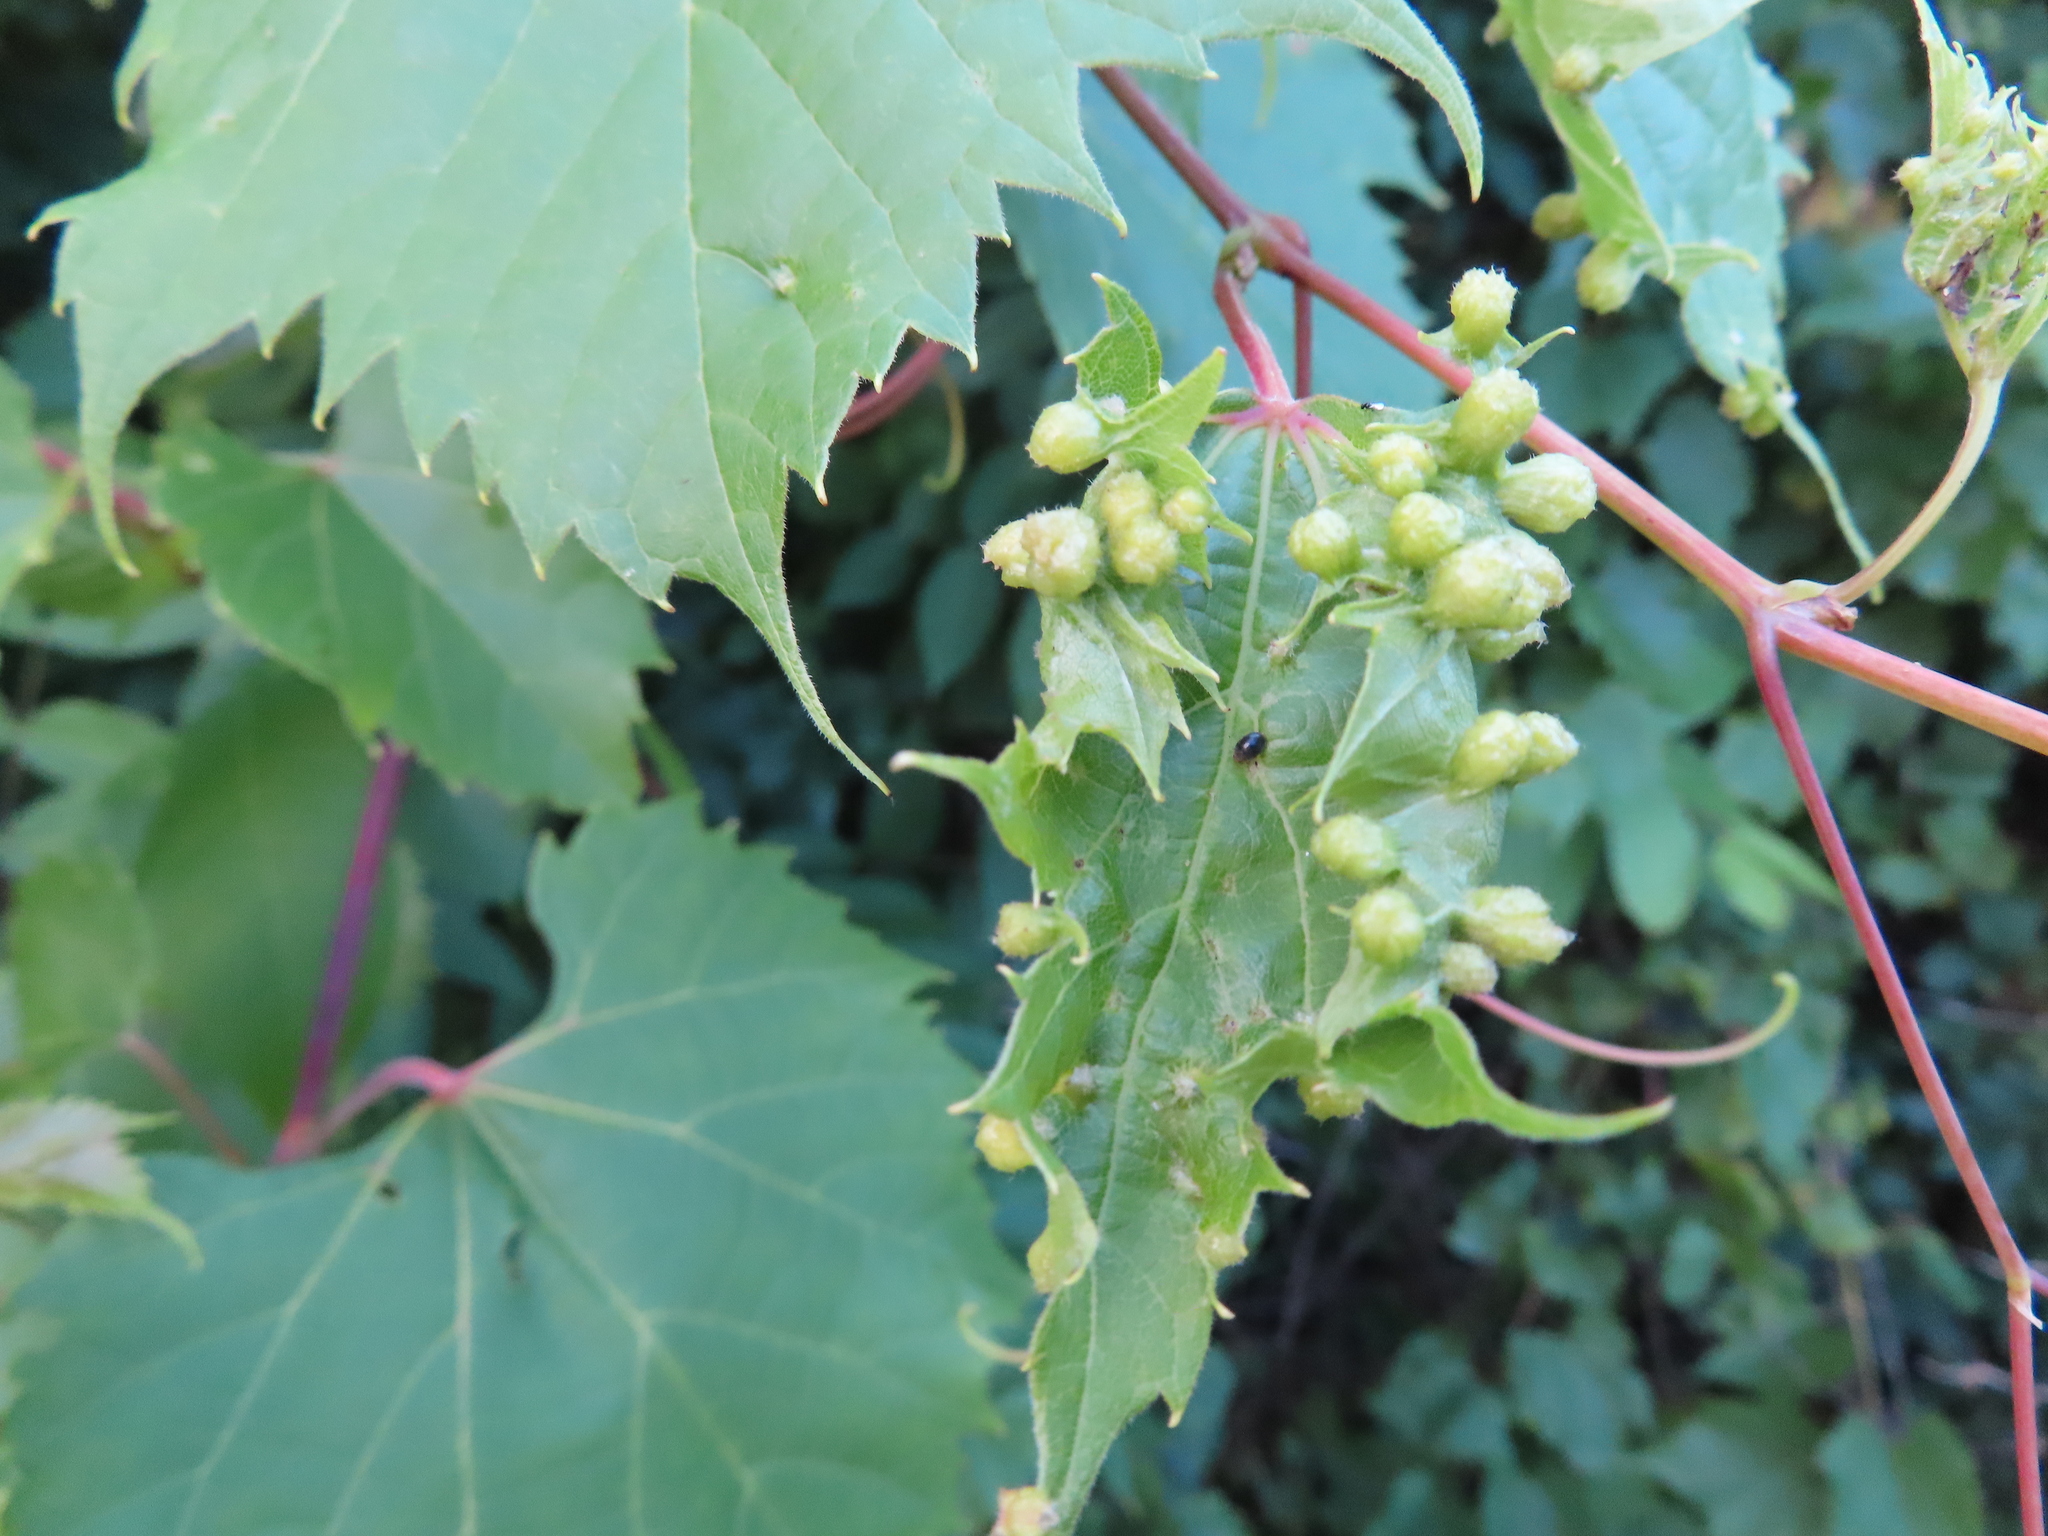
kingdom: Animalia
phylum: Arthropoda
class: Insecta
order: Hemiptera
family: Phylloxeridae
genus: Daktulosphaira
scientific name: Daktulosphaira vitifoliae
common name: Grape phylloxera
